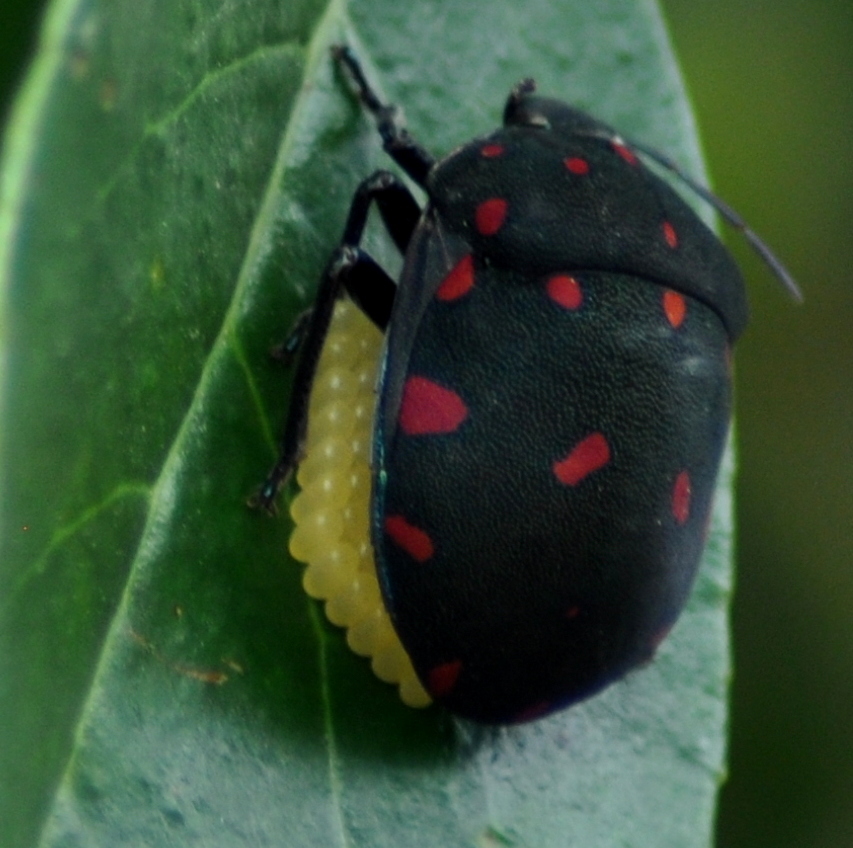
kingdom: Animalia
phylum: Arthropoda
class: Insecta
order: Hemiptera
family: Scutelleridae
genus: Pachycoris
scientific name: Pachycoris torridus
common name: Torrid jewel bug
